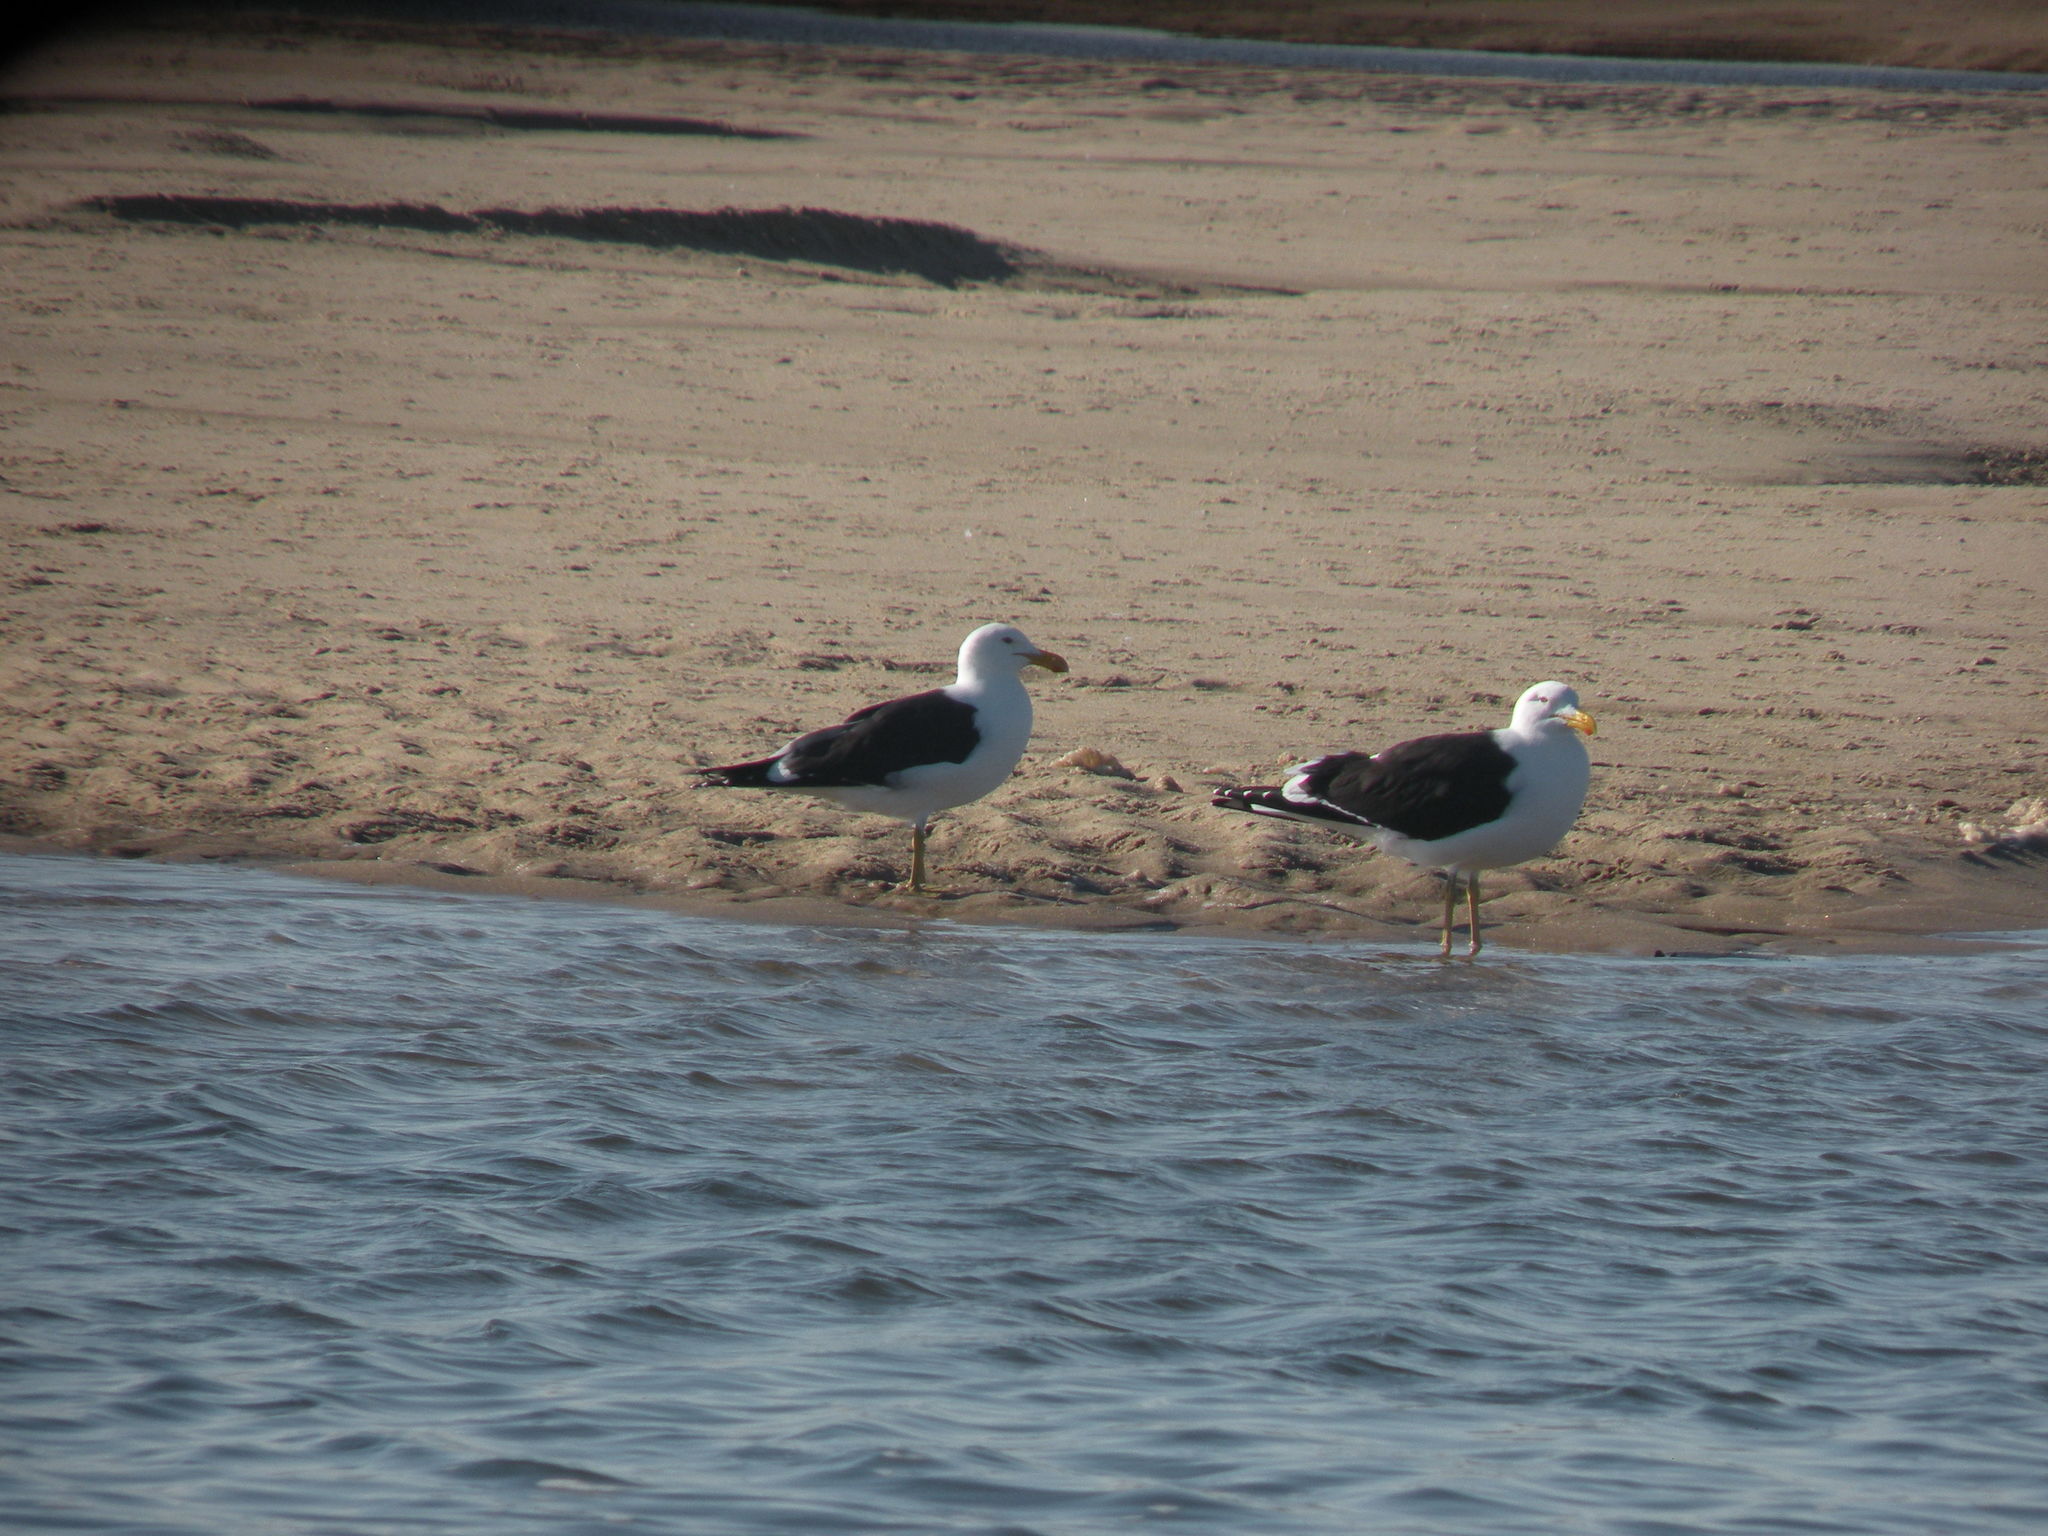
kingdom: Animalia
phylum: Chordata
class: Aves
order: Charadriiformes
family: Laridae
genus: Larus
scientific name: Larus dominicanus
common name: Kelp gull
